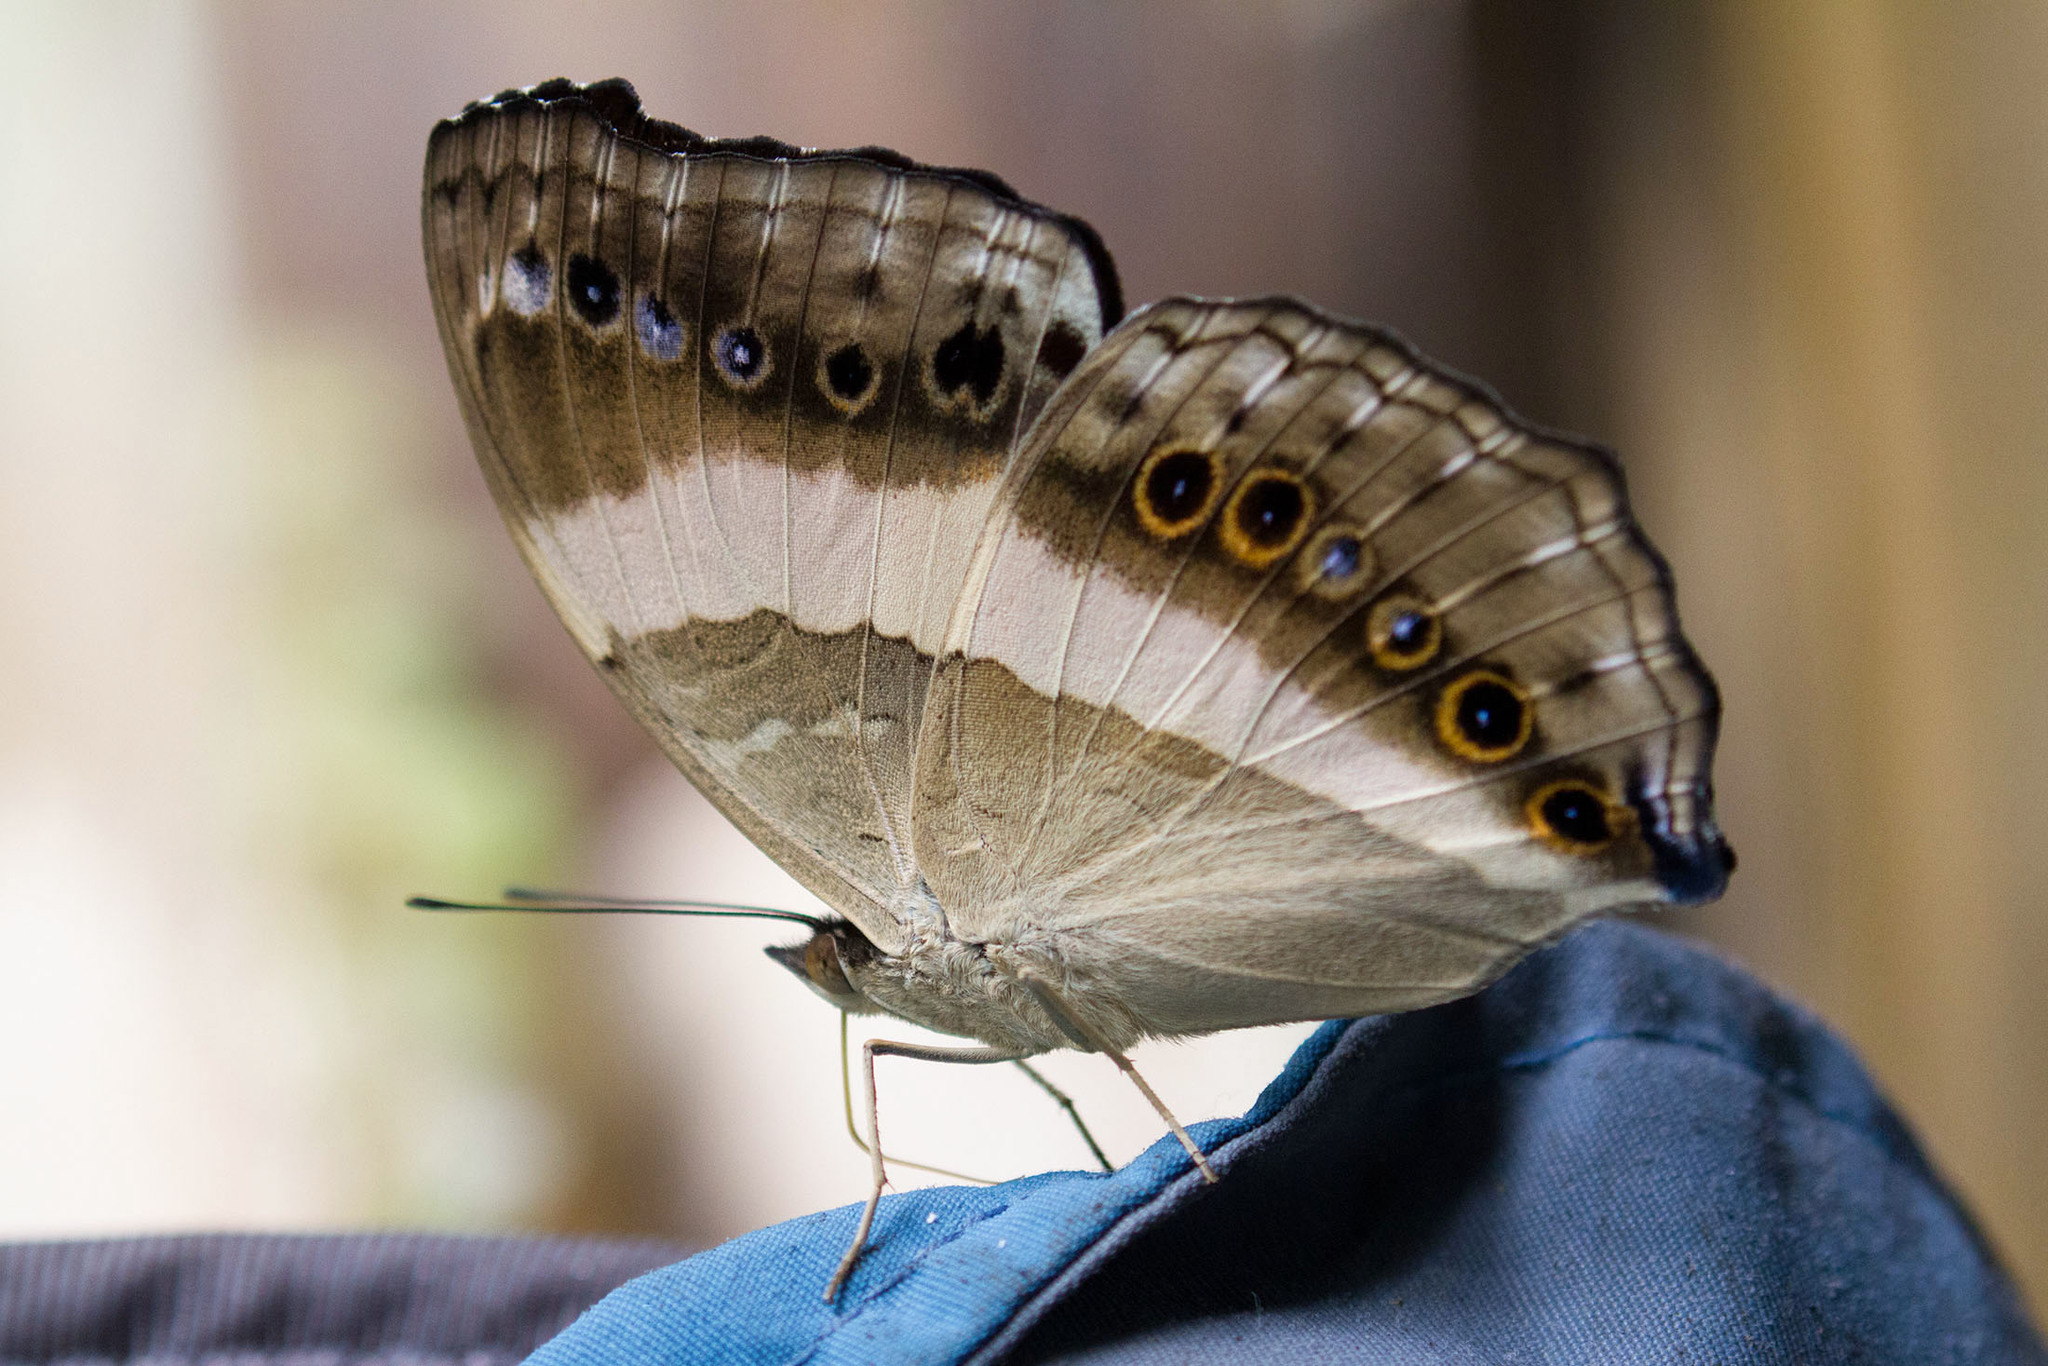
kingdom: Animalia
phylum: Arthropoda
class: Insecta
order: Lepidoptera
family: Nymphalidae
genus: Yoma
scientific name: Yoma algina
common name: New guinea lurcher
